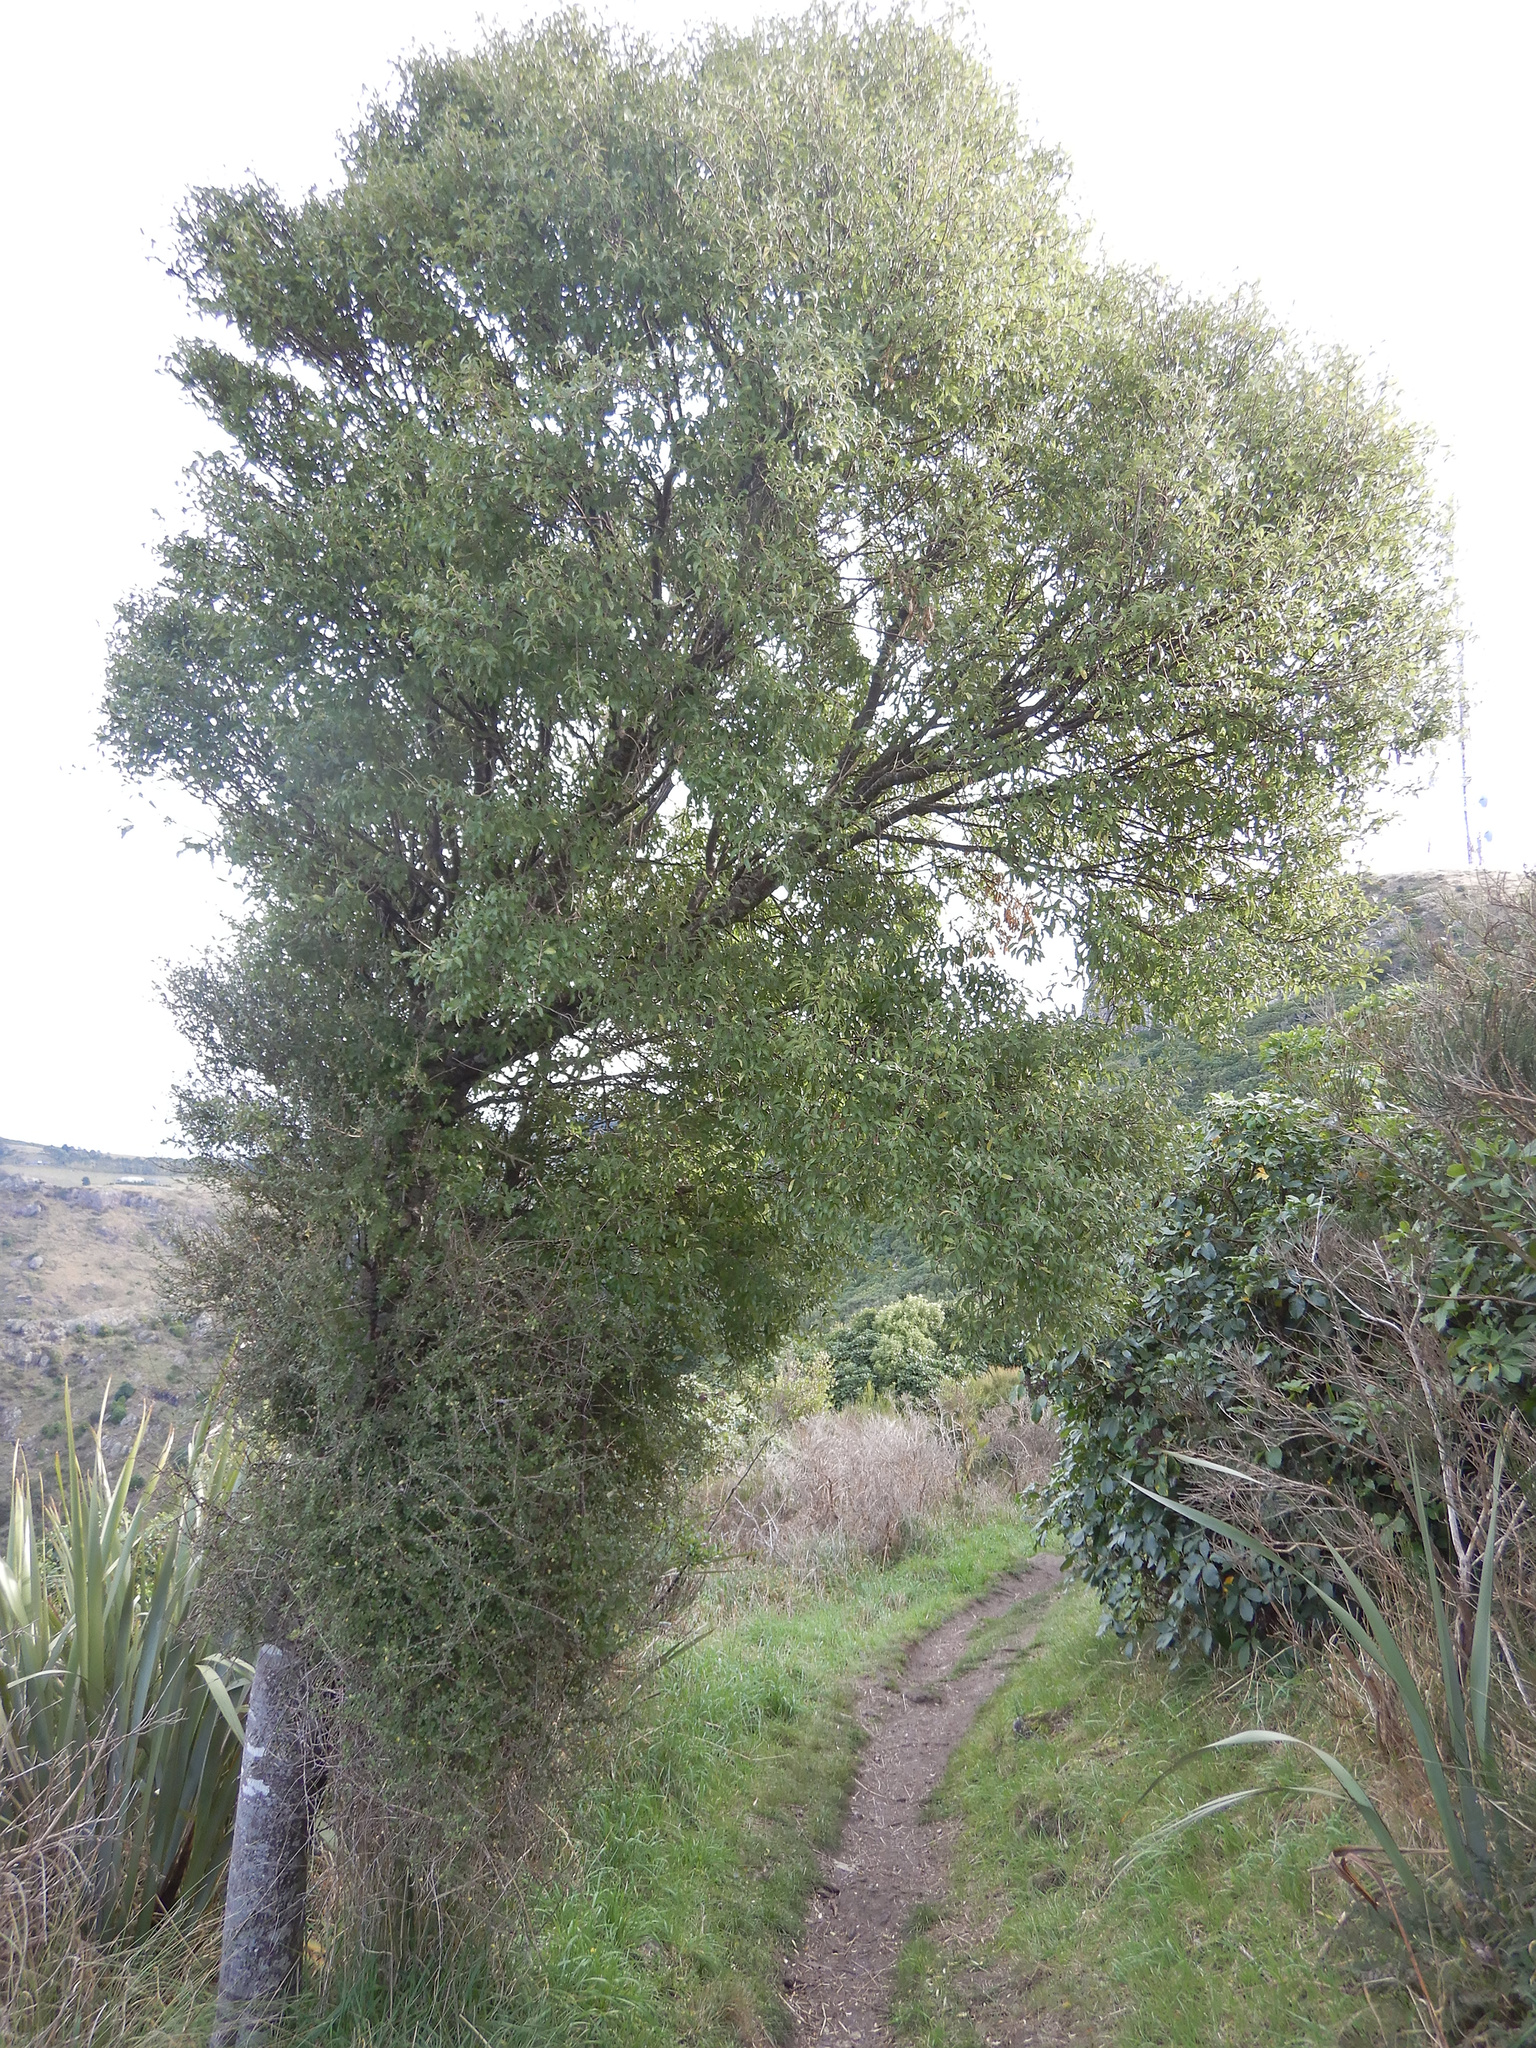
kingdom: Plantae
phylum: Tracheophyta
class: Magnoliopsida
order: Malvales
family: Malvaceae
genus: Hoheria
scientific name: Hoheria angustifolia
